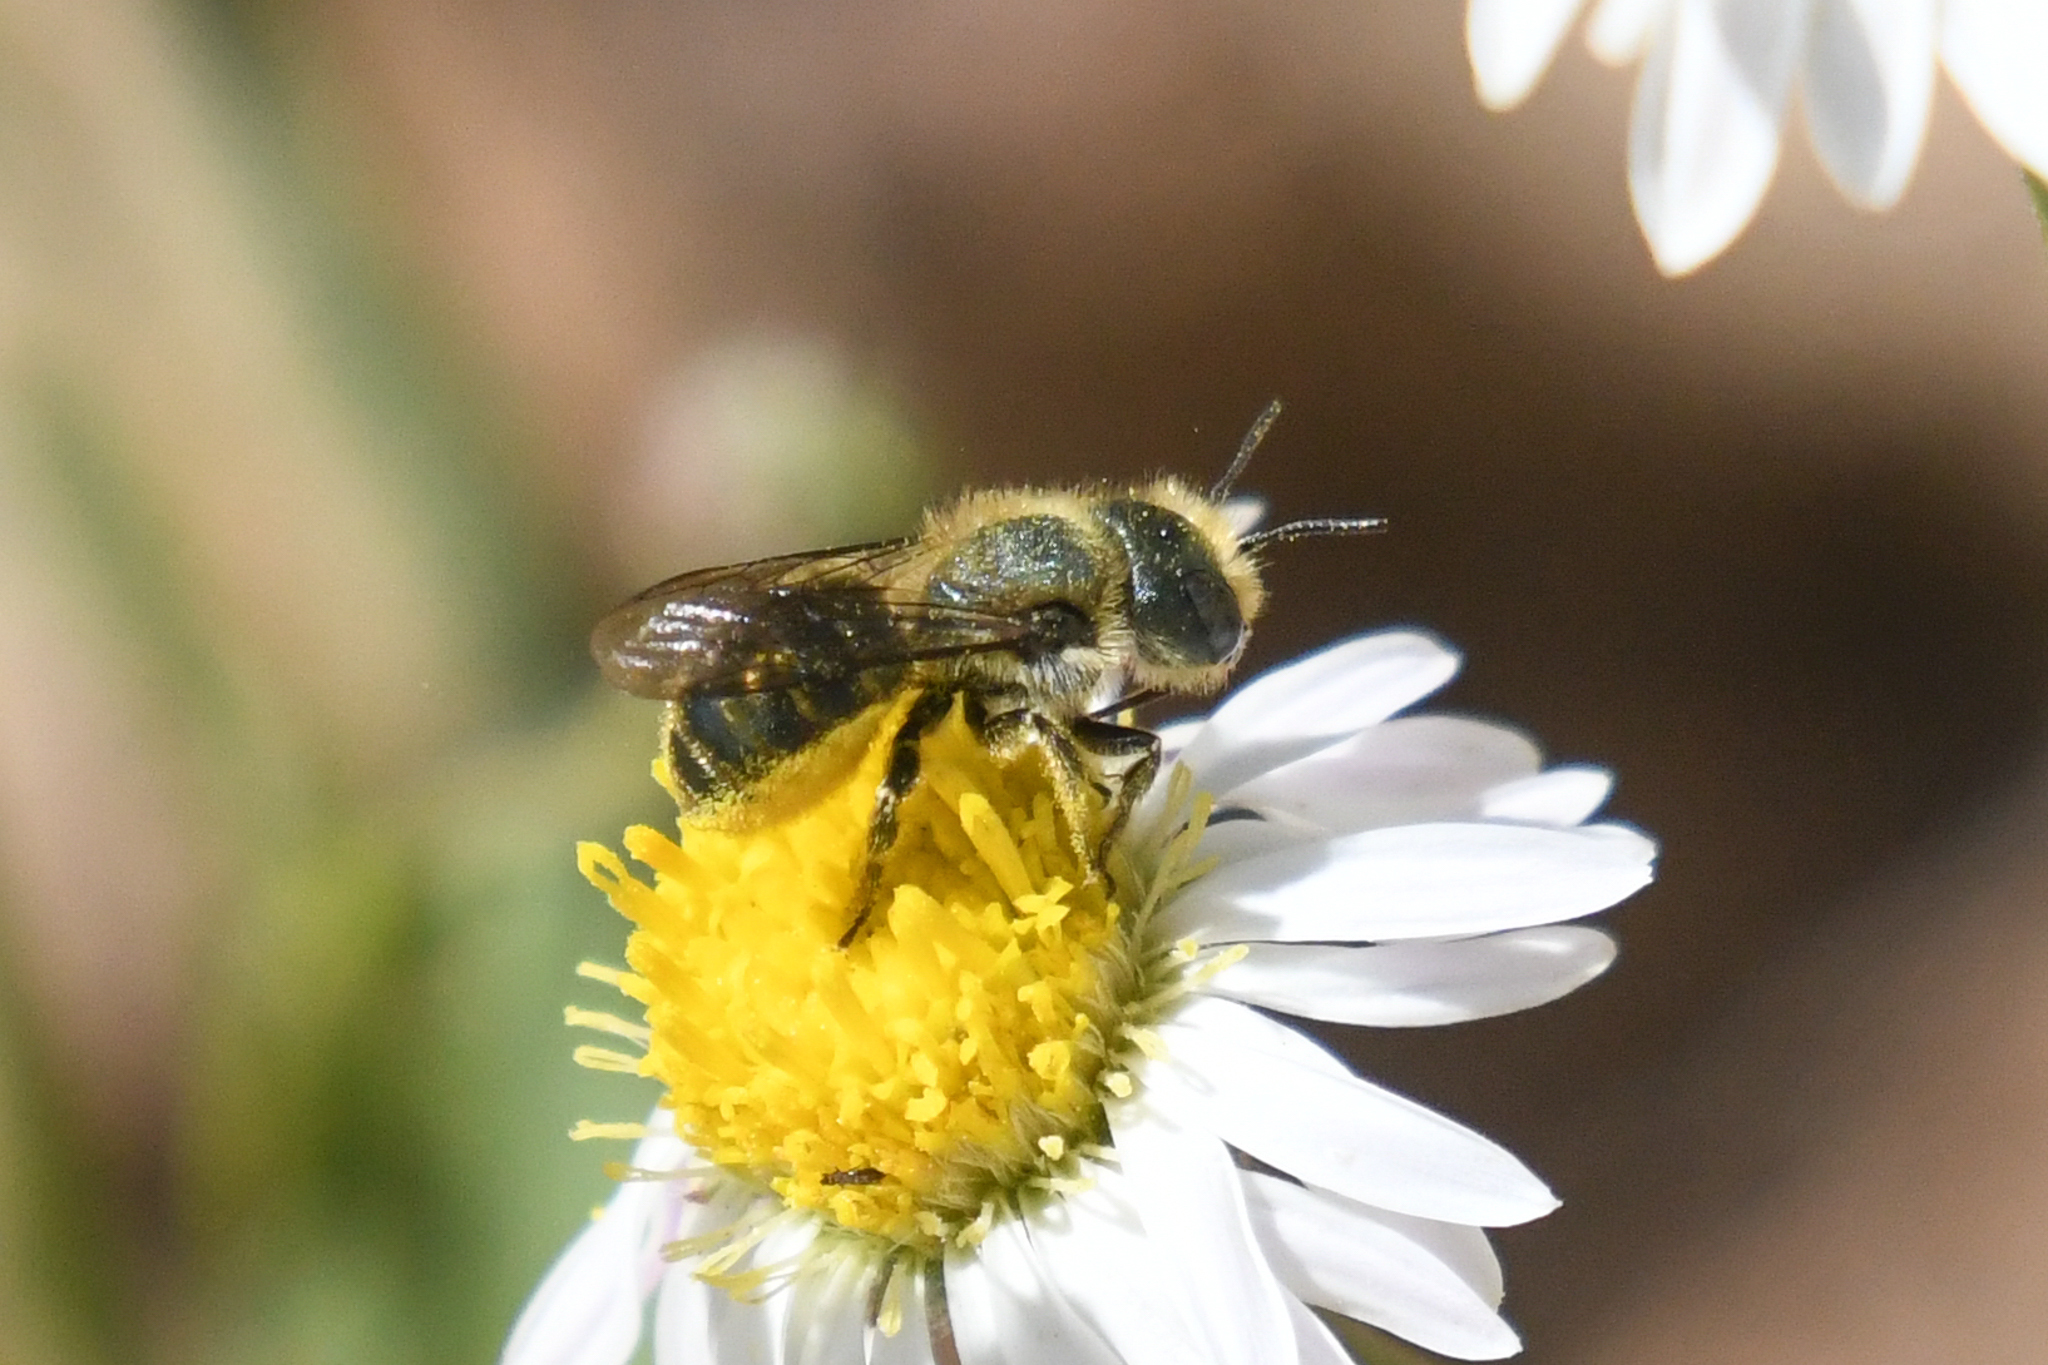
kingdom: Animalia
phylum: Arthropoda
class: Insecta
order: Hymenoptera
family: Megachilidae
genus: Osmia
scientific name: Osmia coloradensis
